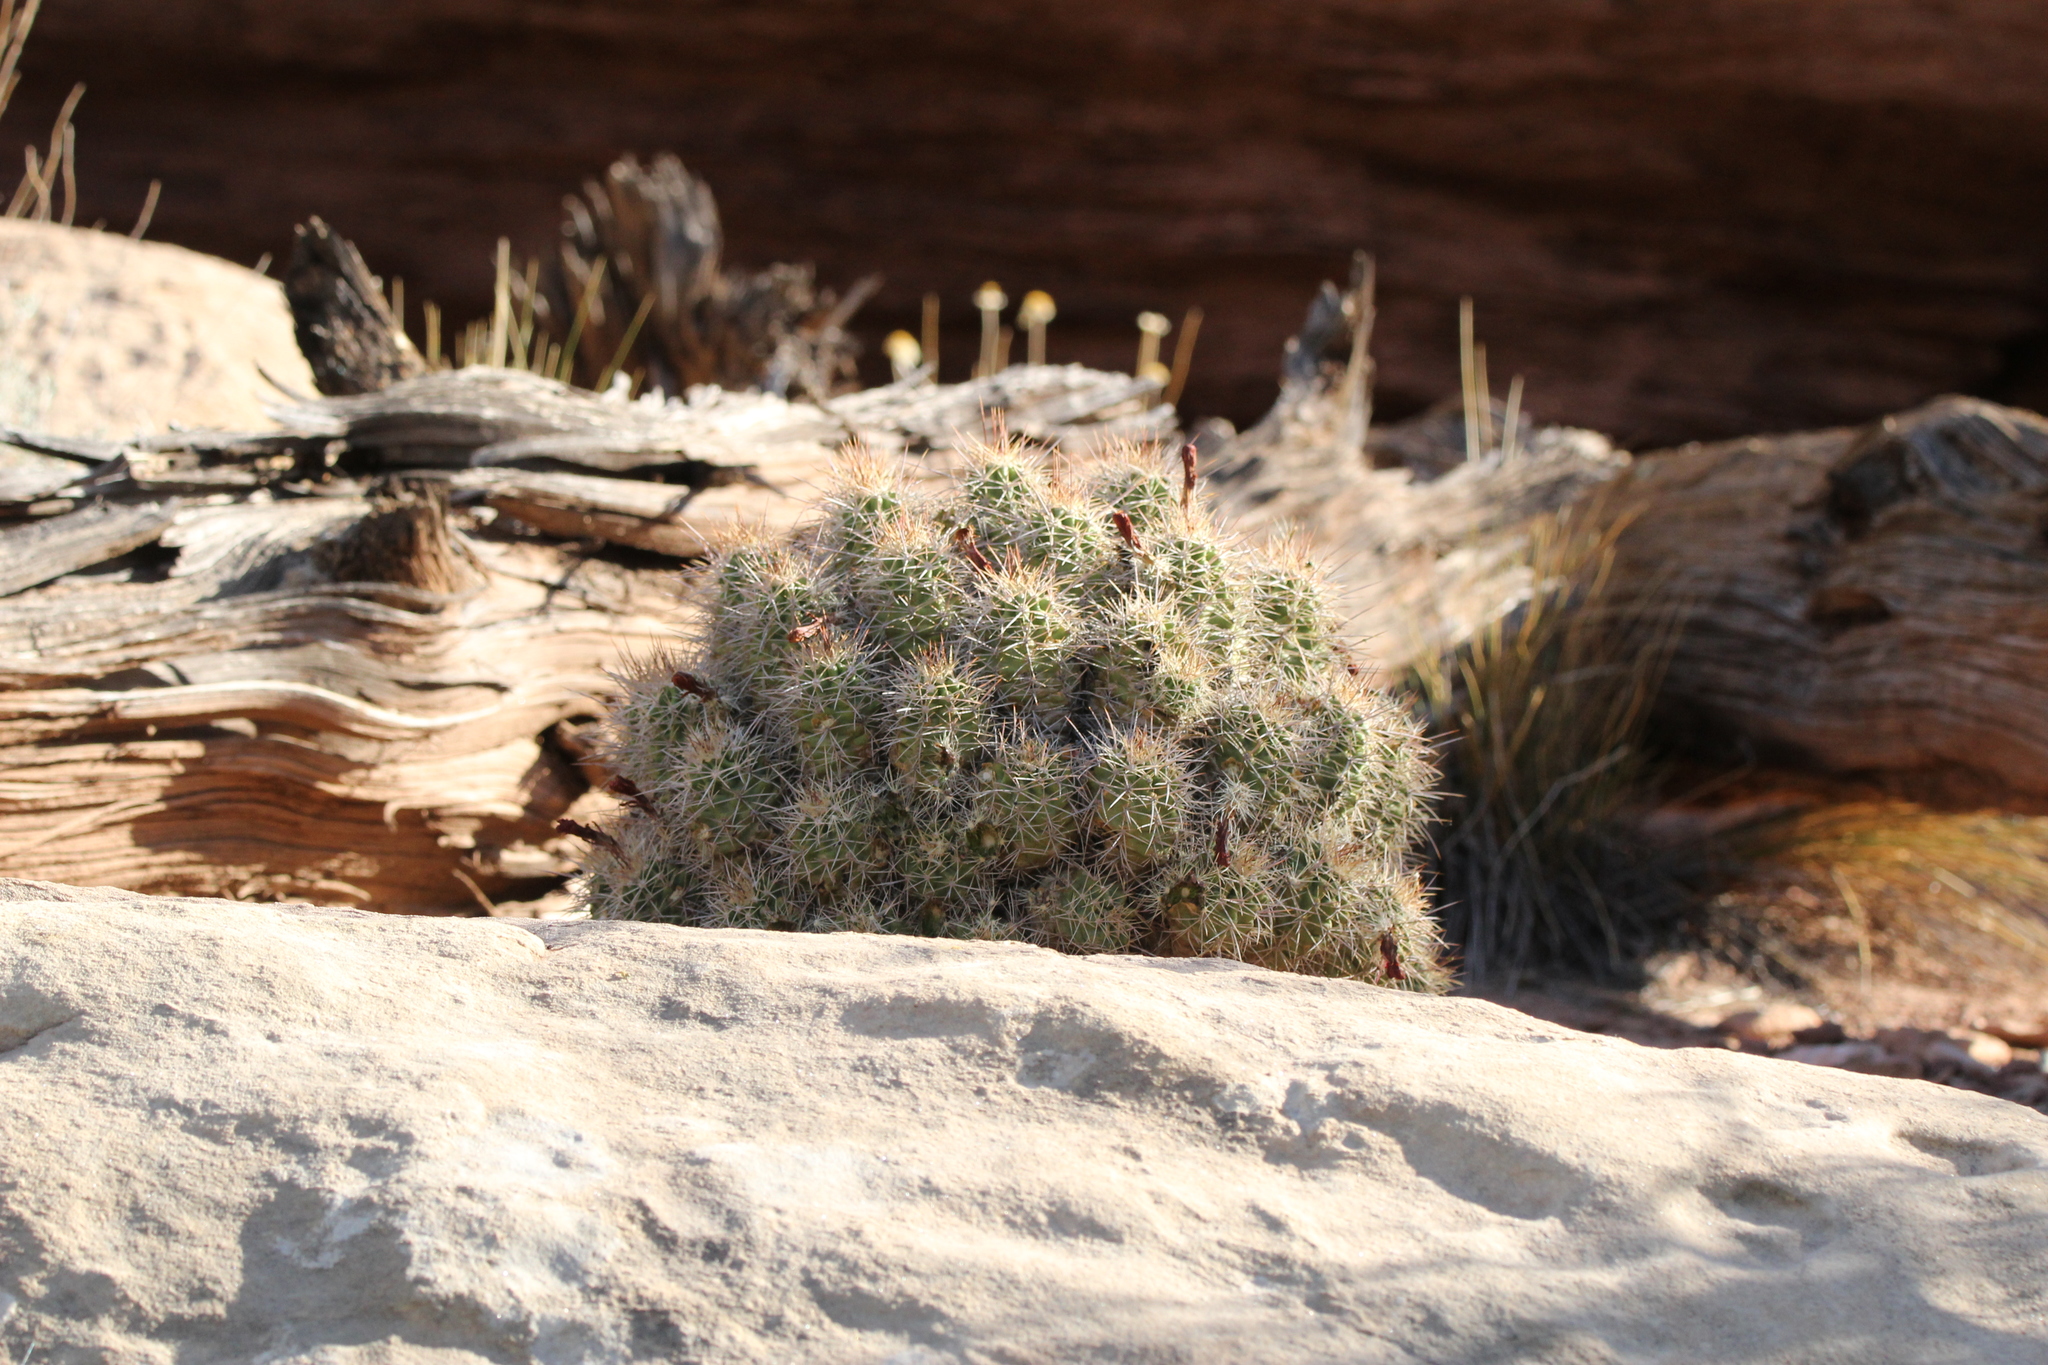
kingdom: Plantae
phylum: Tracheophyta
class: Magnoliopsida
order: Caryophyllales
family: Cactaceae
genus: Echinocereus
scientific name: Echinocereus triglochidiatus
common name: Claretcup hedgehog
